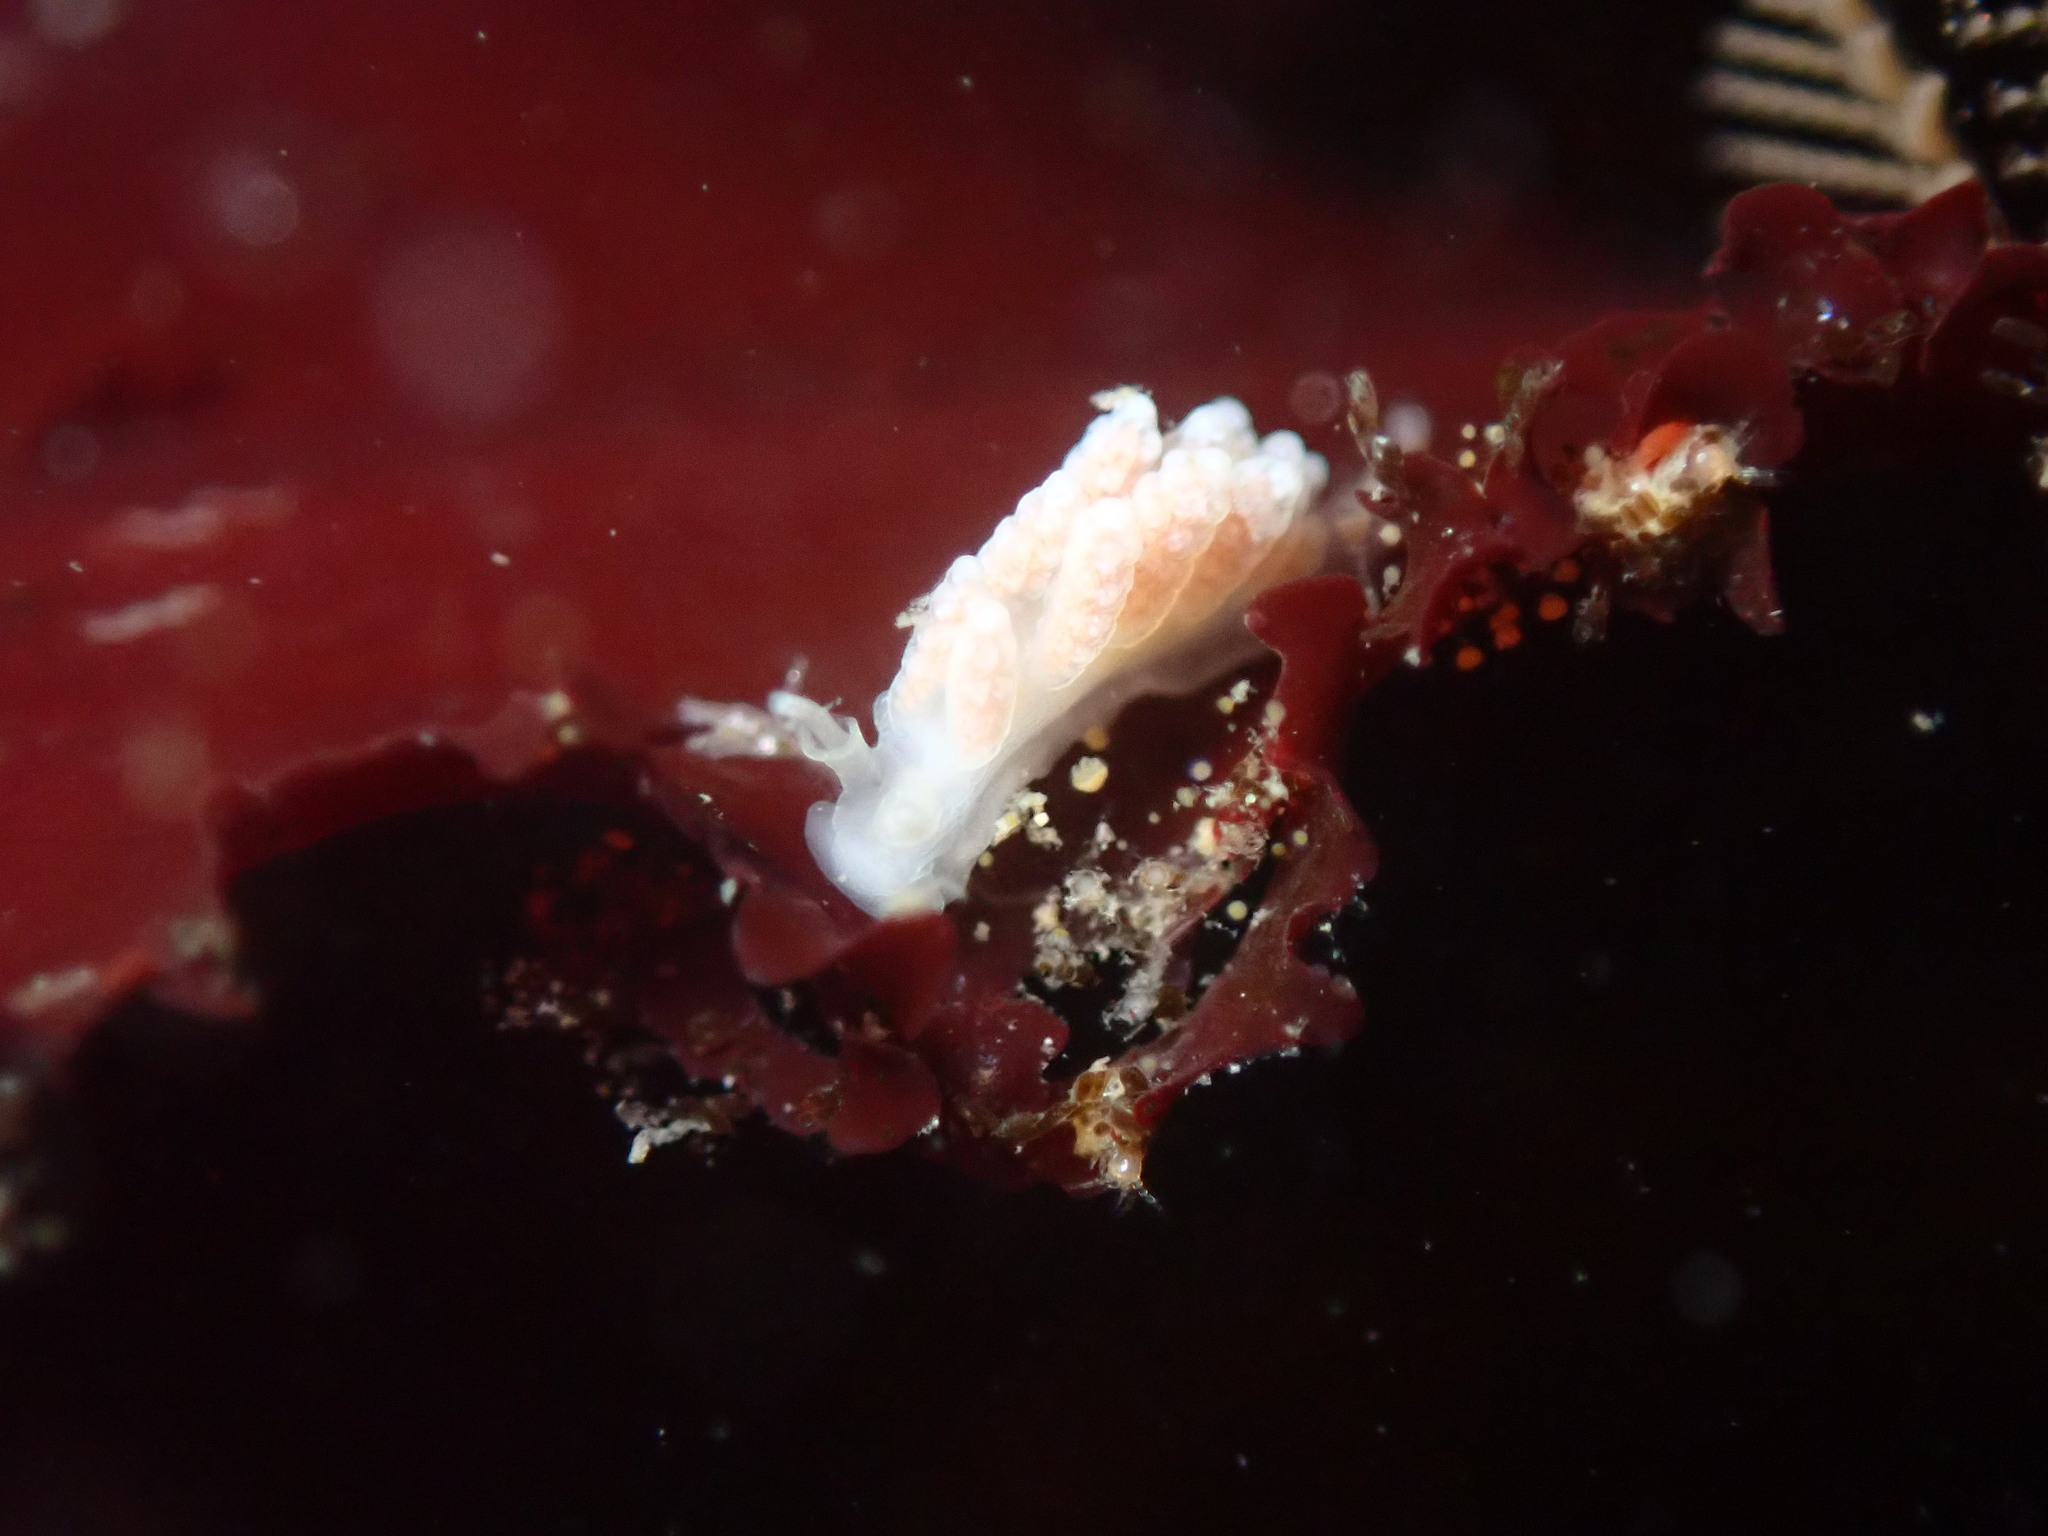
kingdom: Animalia
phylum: Mollusca
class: Gastropoda
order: Nudibranchia
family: Dotidae
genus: Doto
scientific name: Doto amyra
